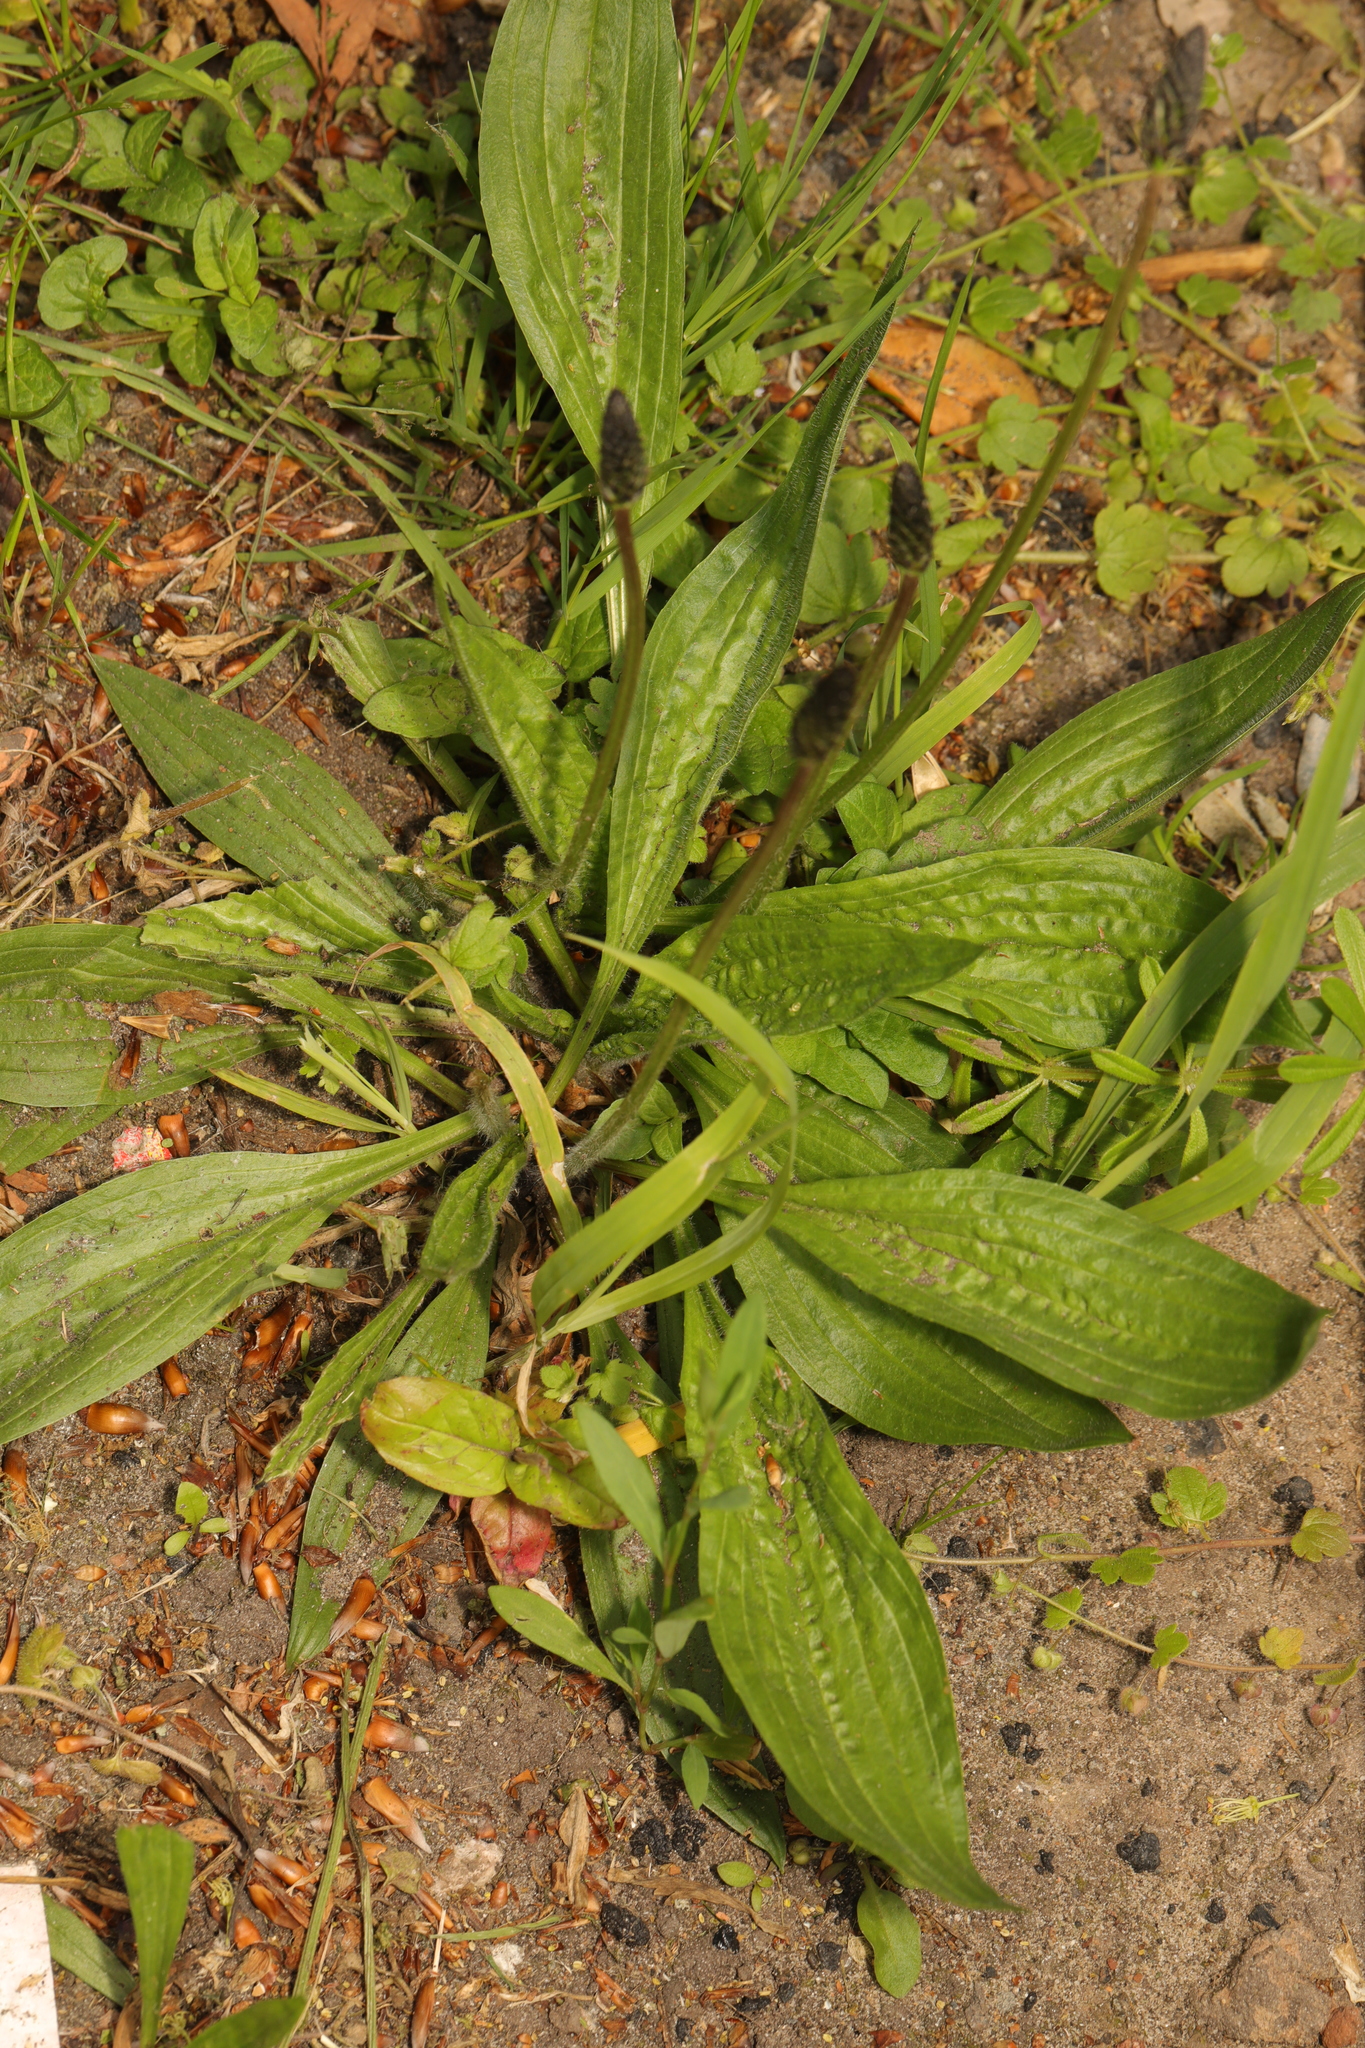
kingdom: Plantae
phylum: Tracheophyta
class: Magnoliopsida
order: Lamiales
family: Plantaginaceae
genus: Plantago
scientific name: Plantago lanceolata
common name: Ribwort plantain
